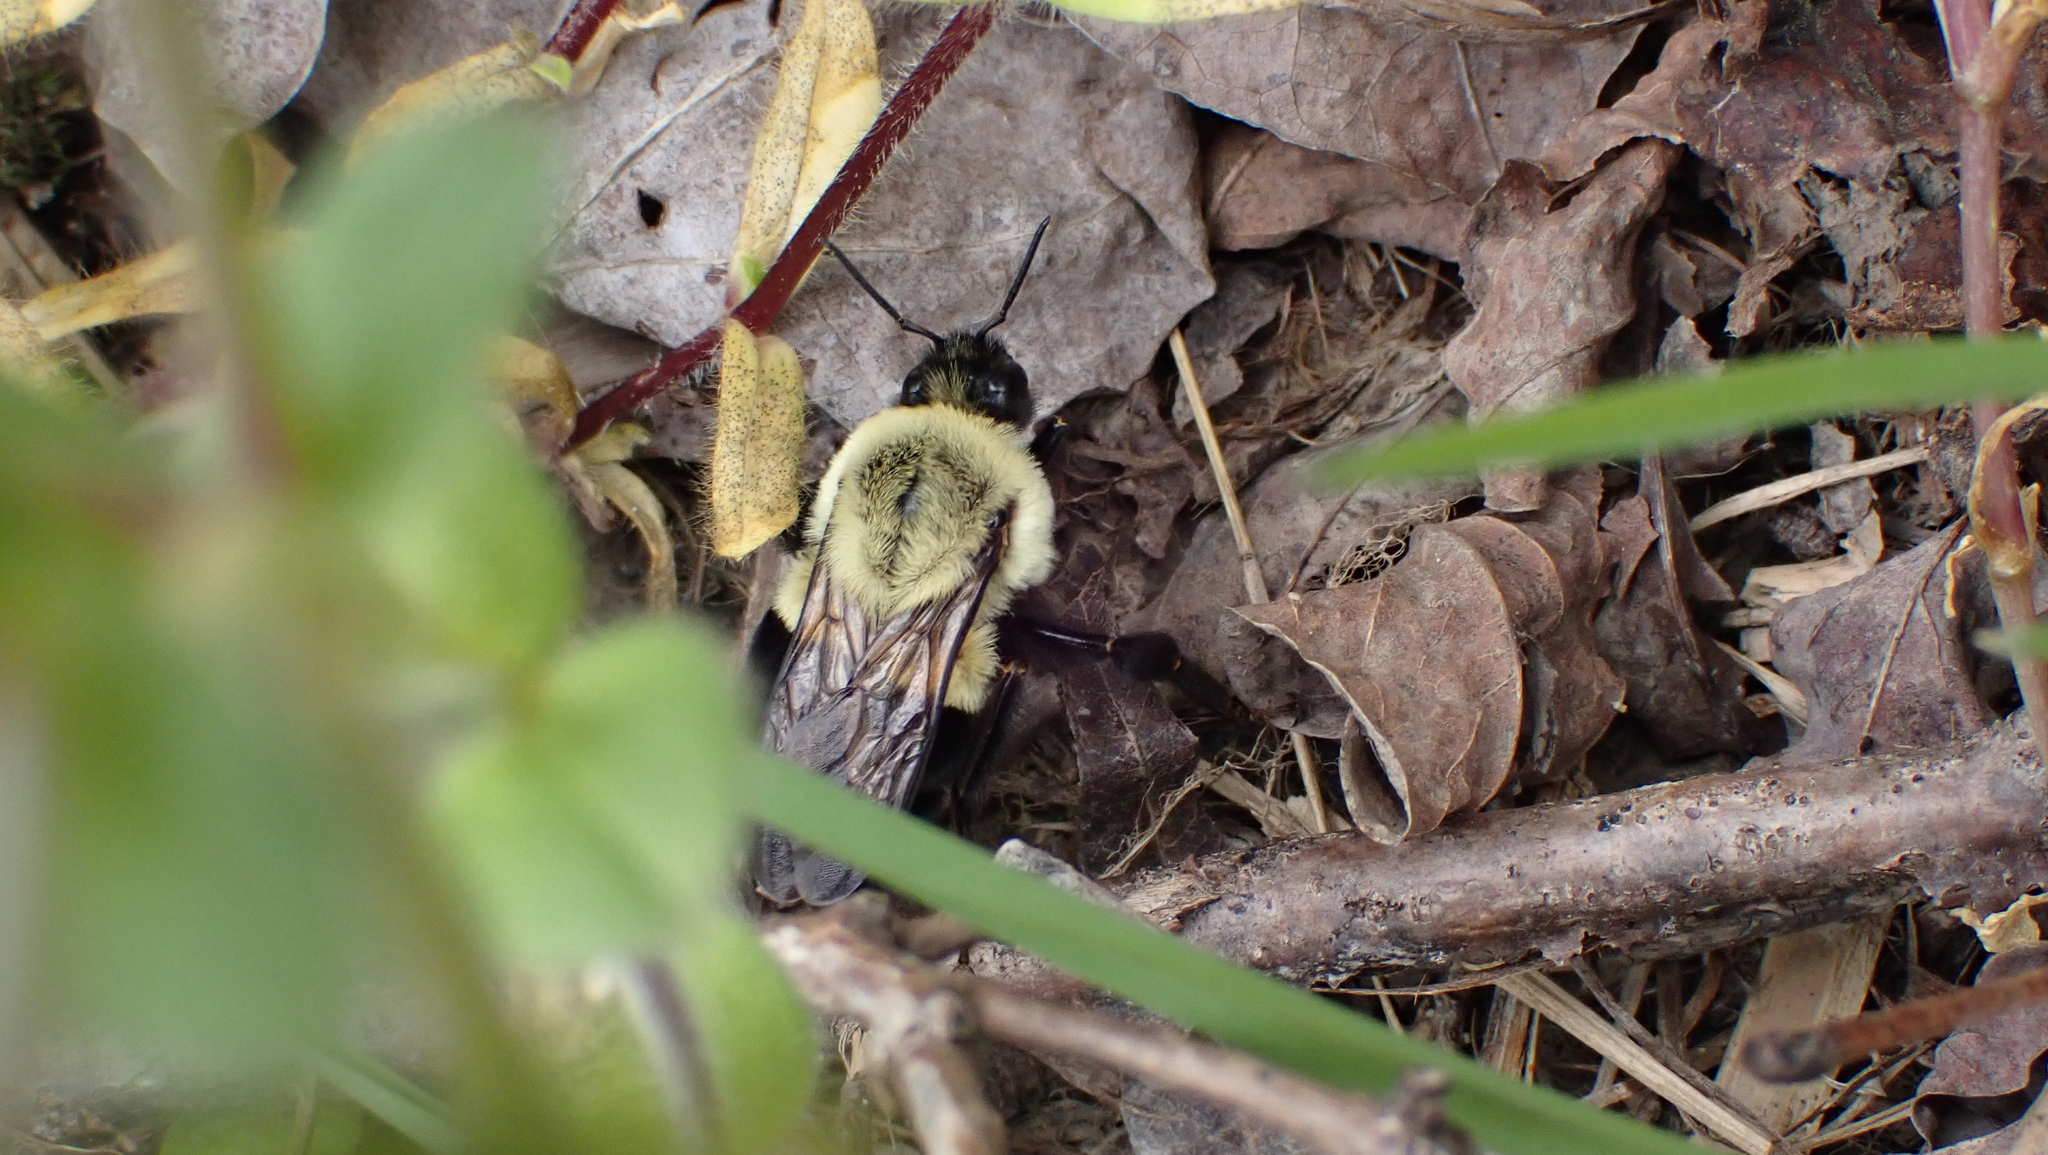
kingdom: Animalia
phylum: Arthropoda
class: Insecta
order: Hymenoptera
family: Apidae
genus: Bombus
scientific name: Bombus impatiens
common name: Common eastern bumble bee
